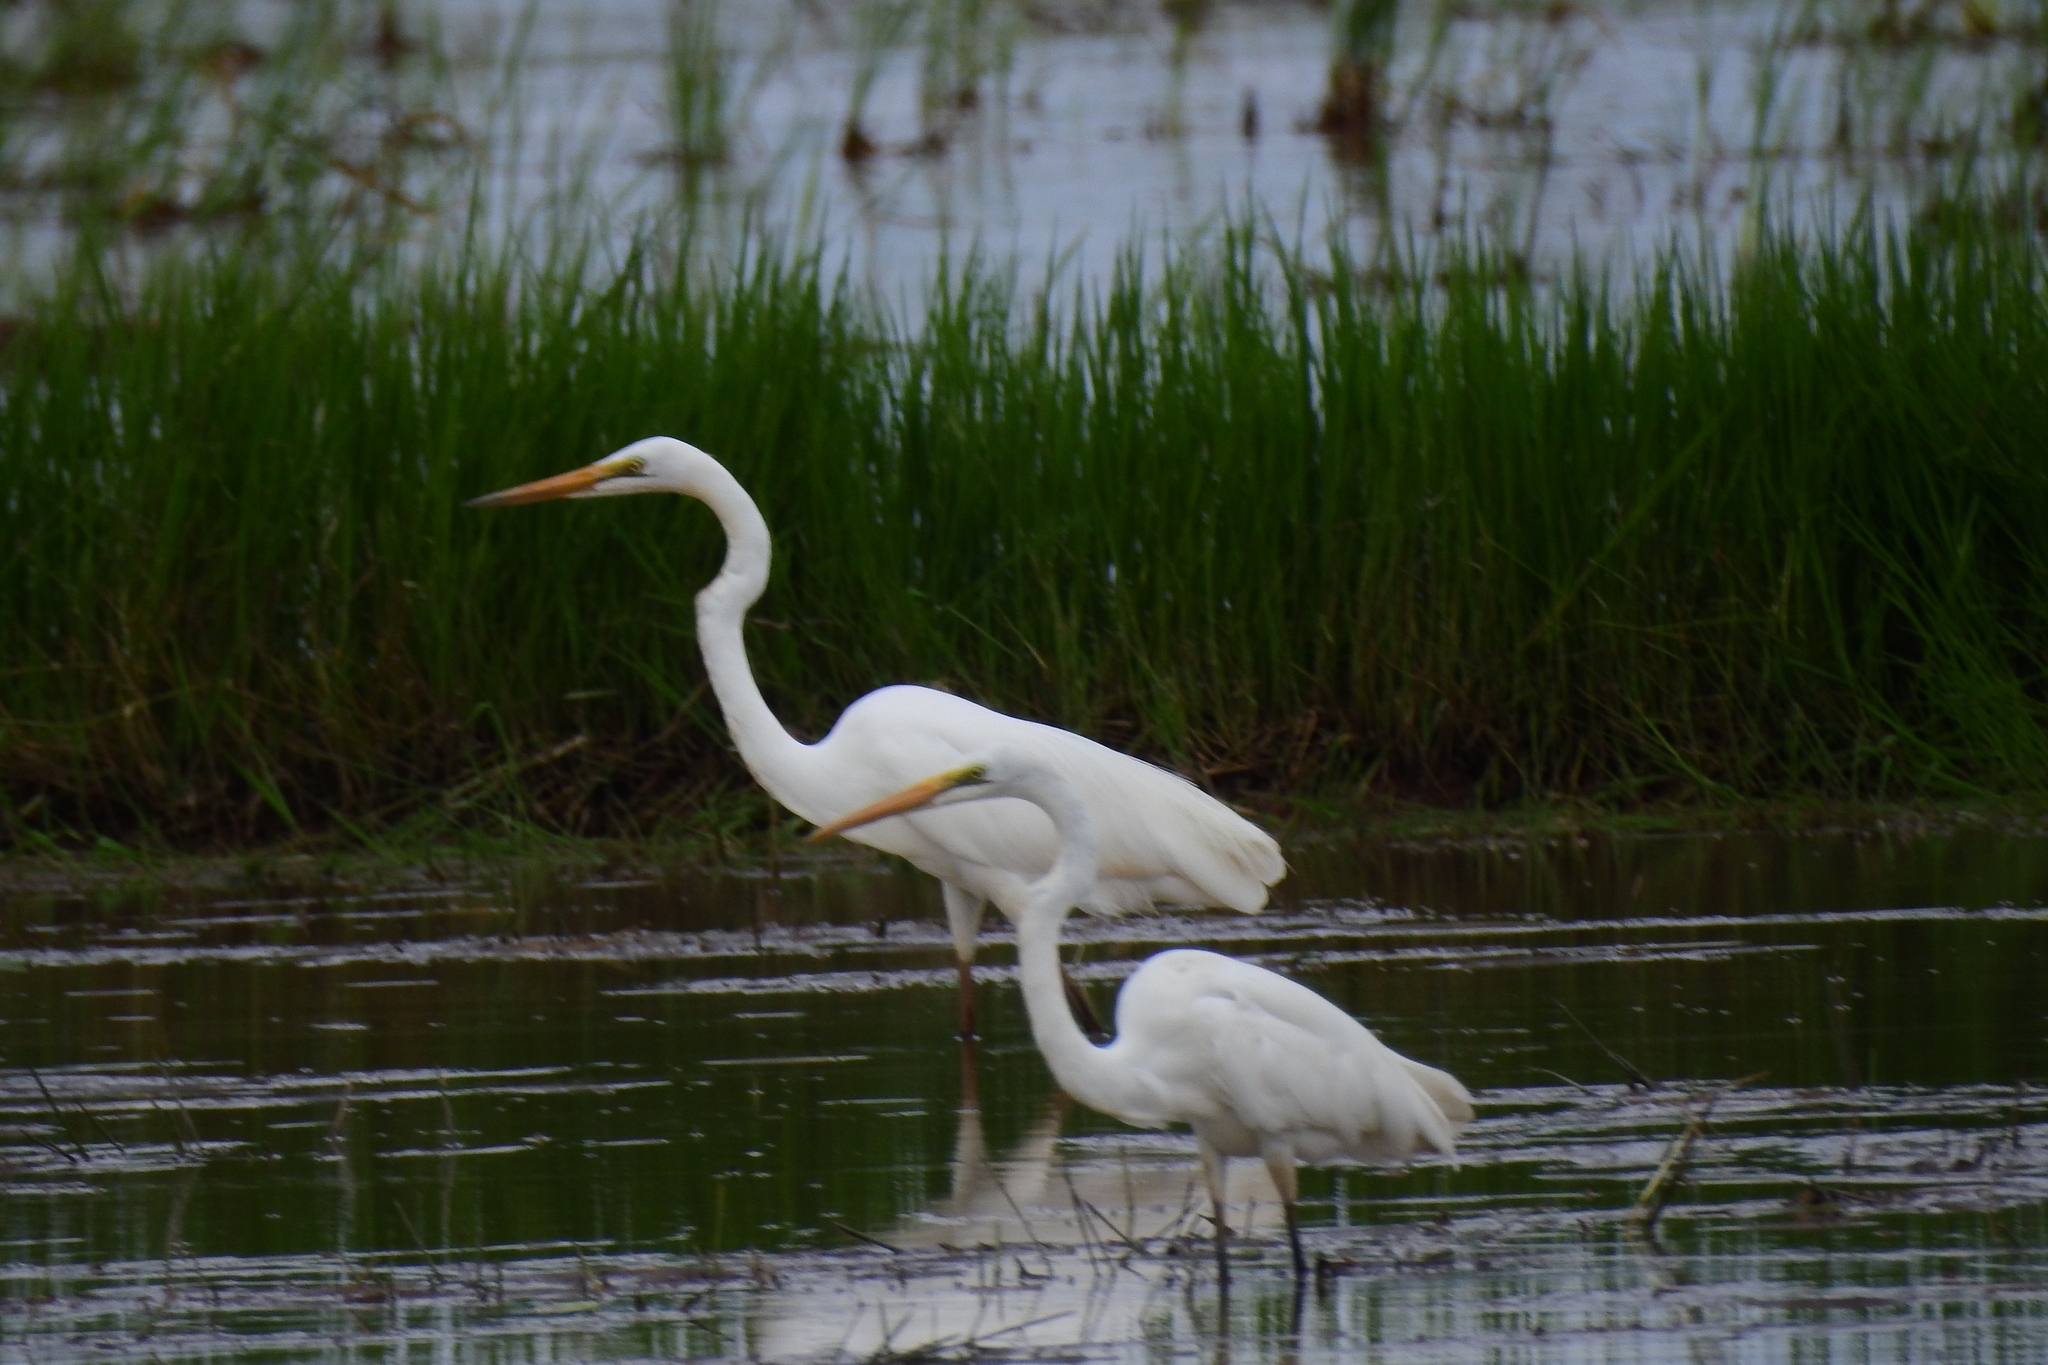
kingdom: Animalia
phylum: Chordata
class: Aves
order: Pelecaniformes
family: Ardeidae
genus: Ardea
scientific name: Ardea alba
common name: Great egret
